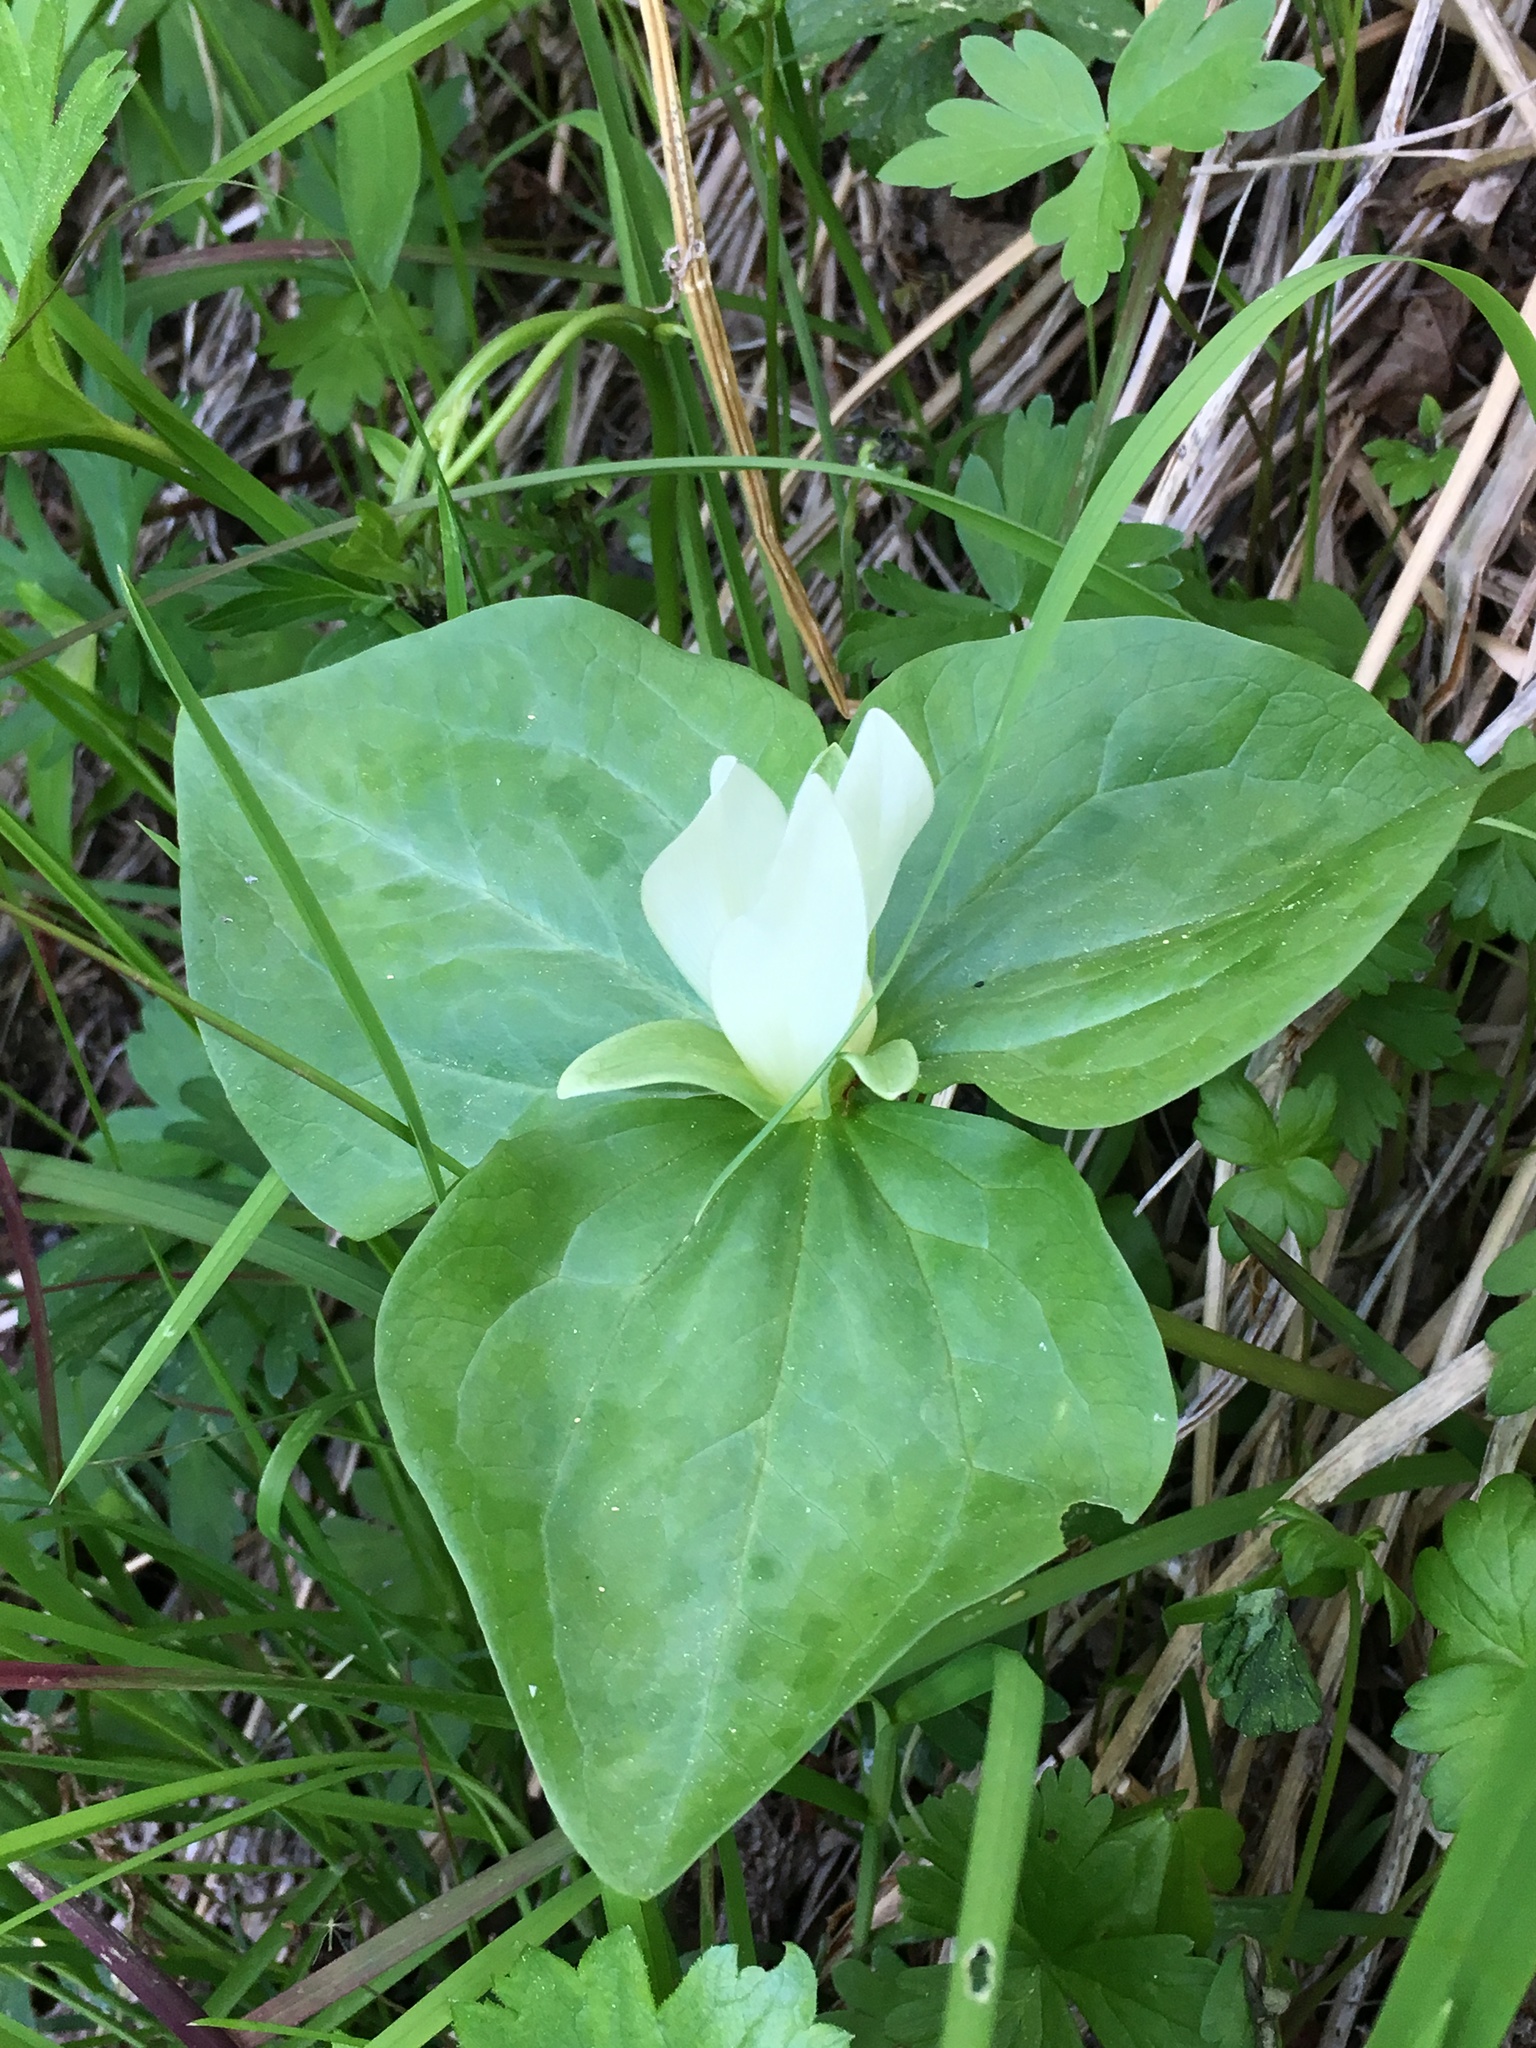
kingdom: Plantae
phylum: Tracheophyta
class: Liliopsida
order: Liliales
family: Melanthiaceae
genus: Trillium
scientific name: Trillium albidum
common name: Freeman's trillium
